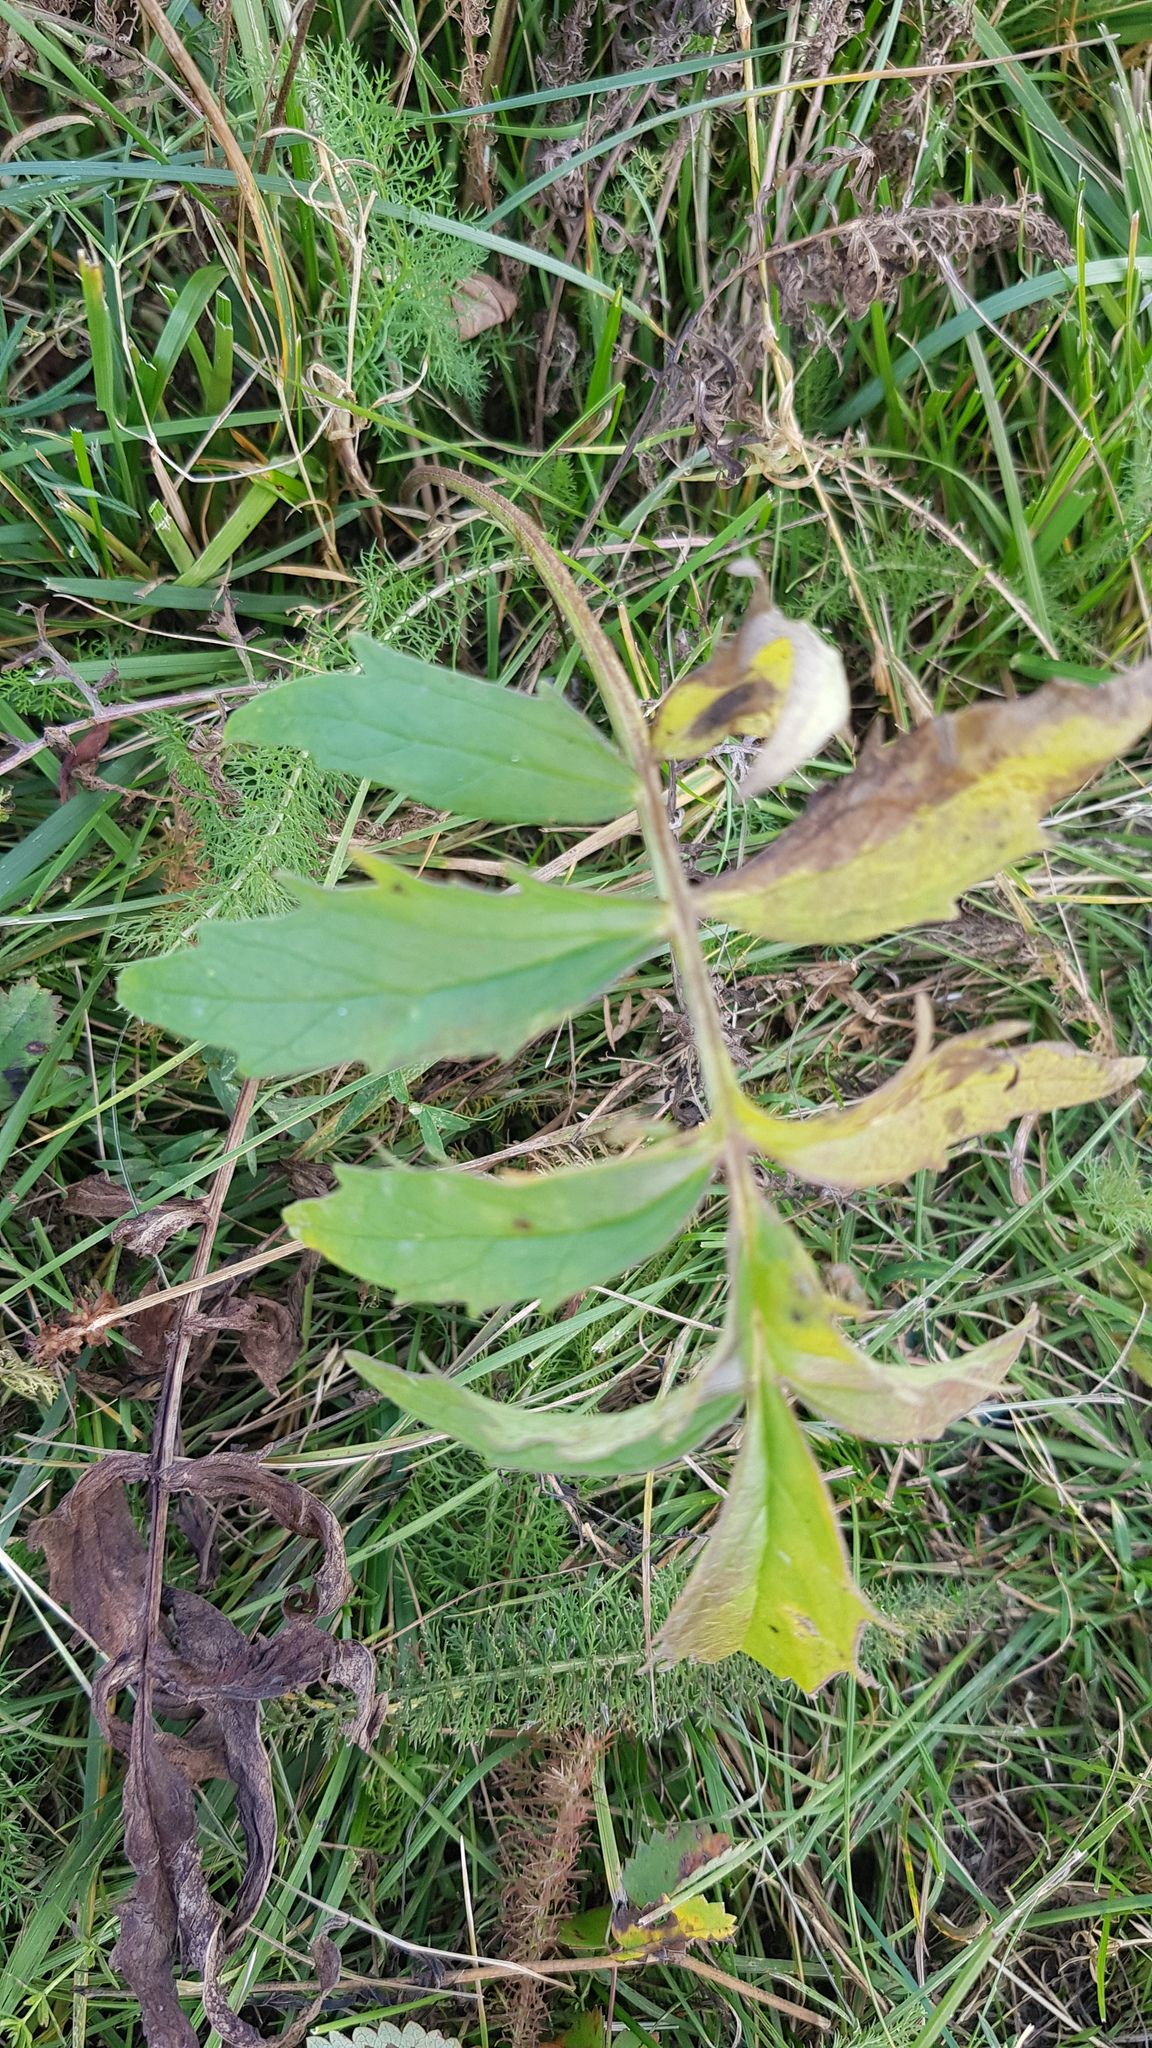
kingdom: Plantae
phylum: Tracheophyta
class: Magnoliopsida
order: Dipsacales
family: Caprifoliaceae
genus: Valeriana
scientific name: Valeriana officinalis
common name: Common valerian
